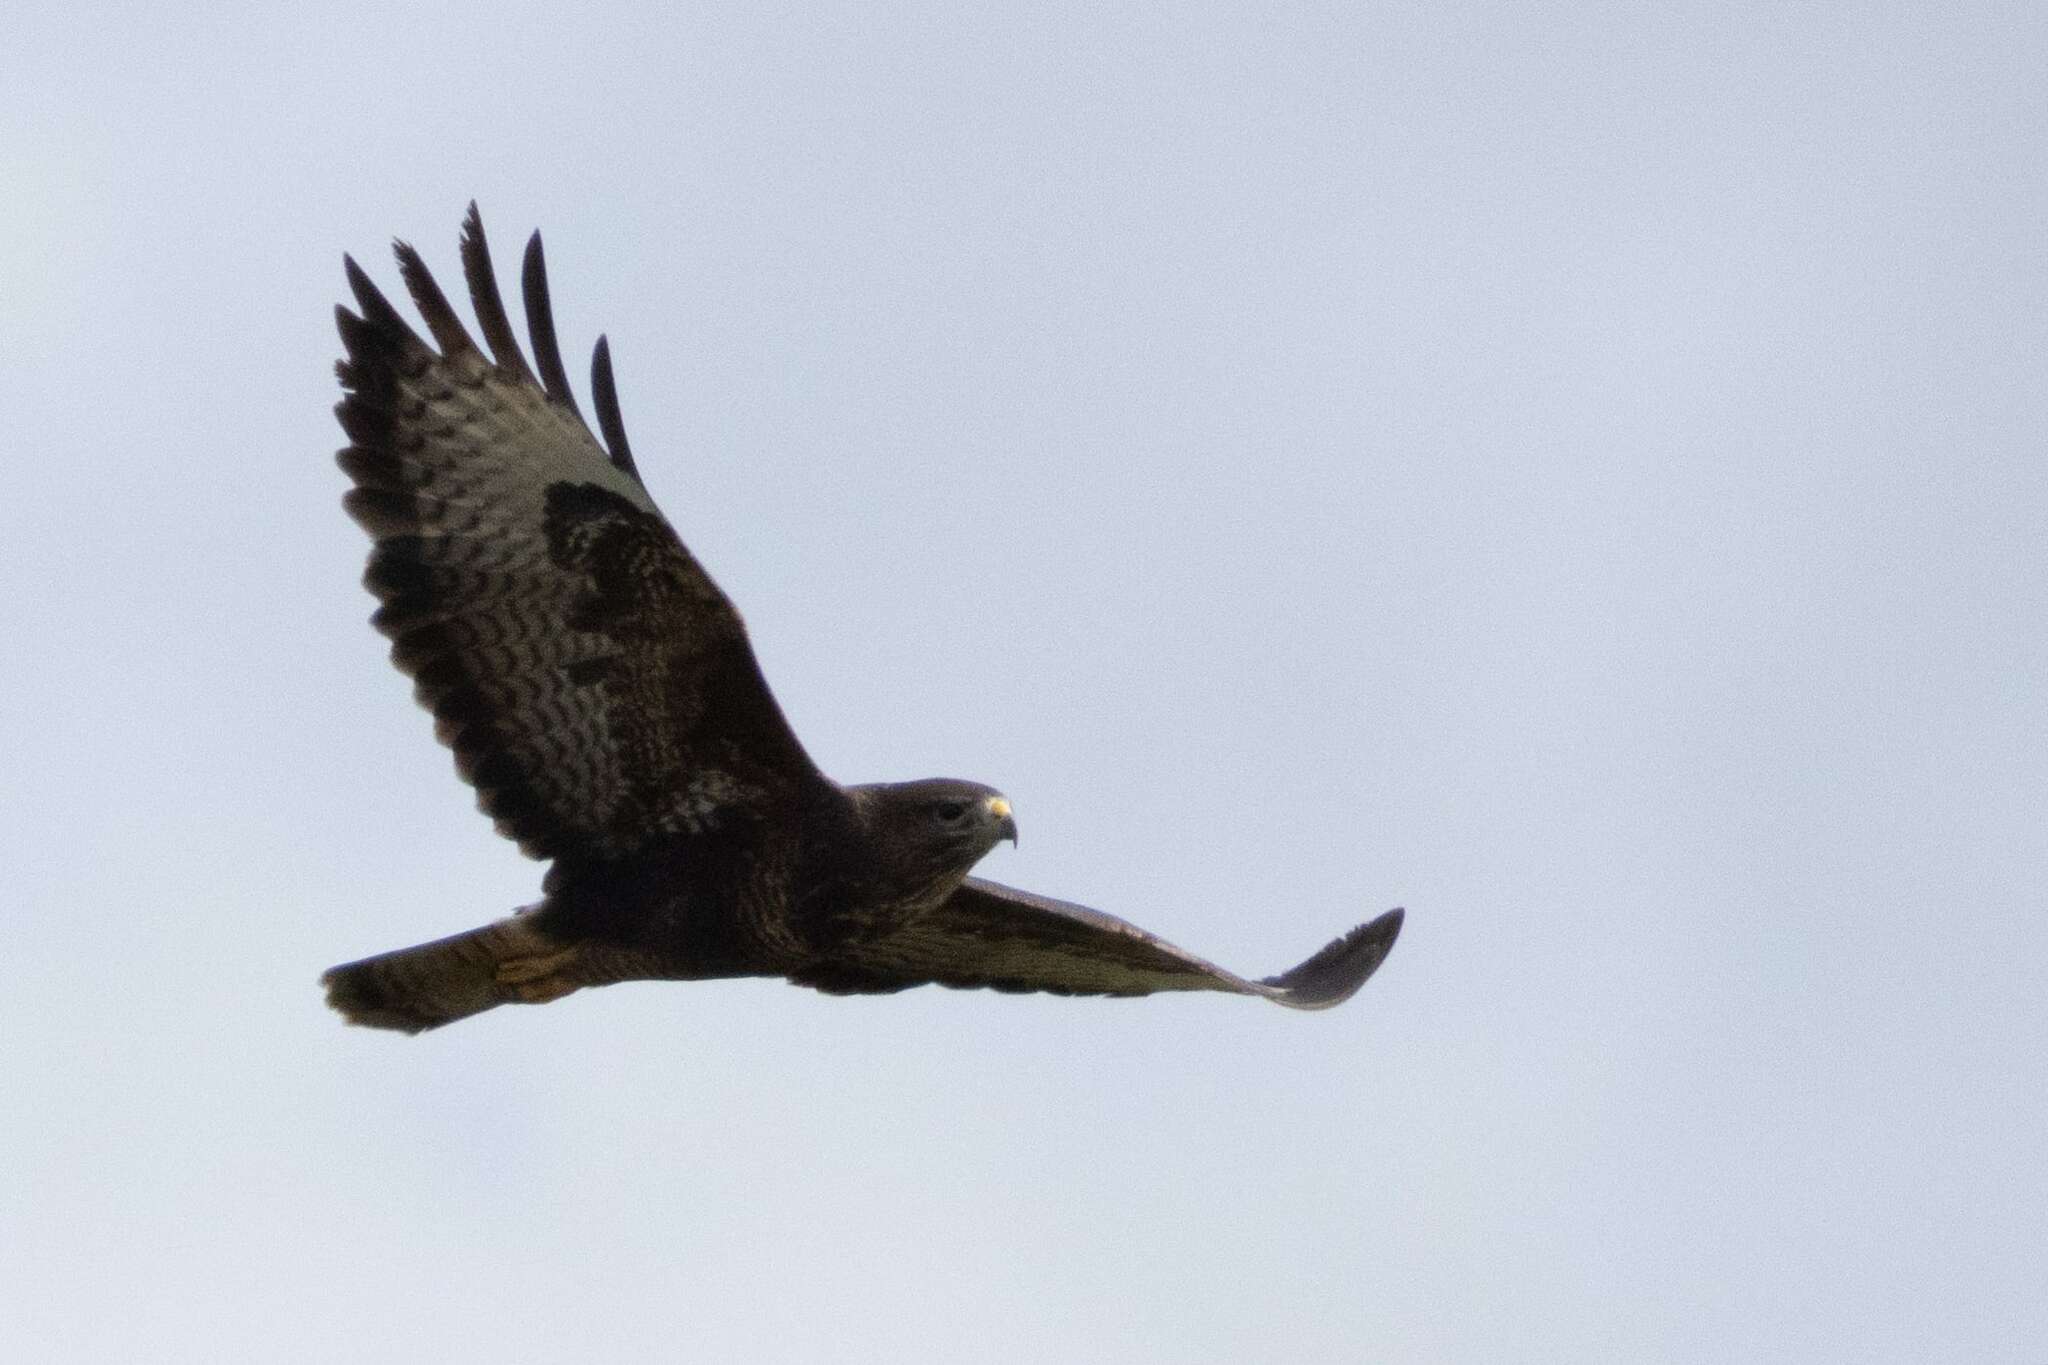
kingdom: Animalia
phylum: Chordata
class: Aves
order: Accipitriformes
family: Accipitridae
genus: Buteo
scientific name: Buteo buteo
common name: Common buzzard
